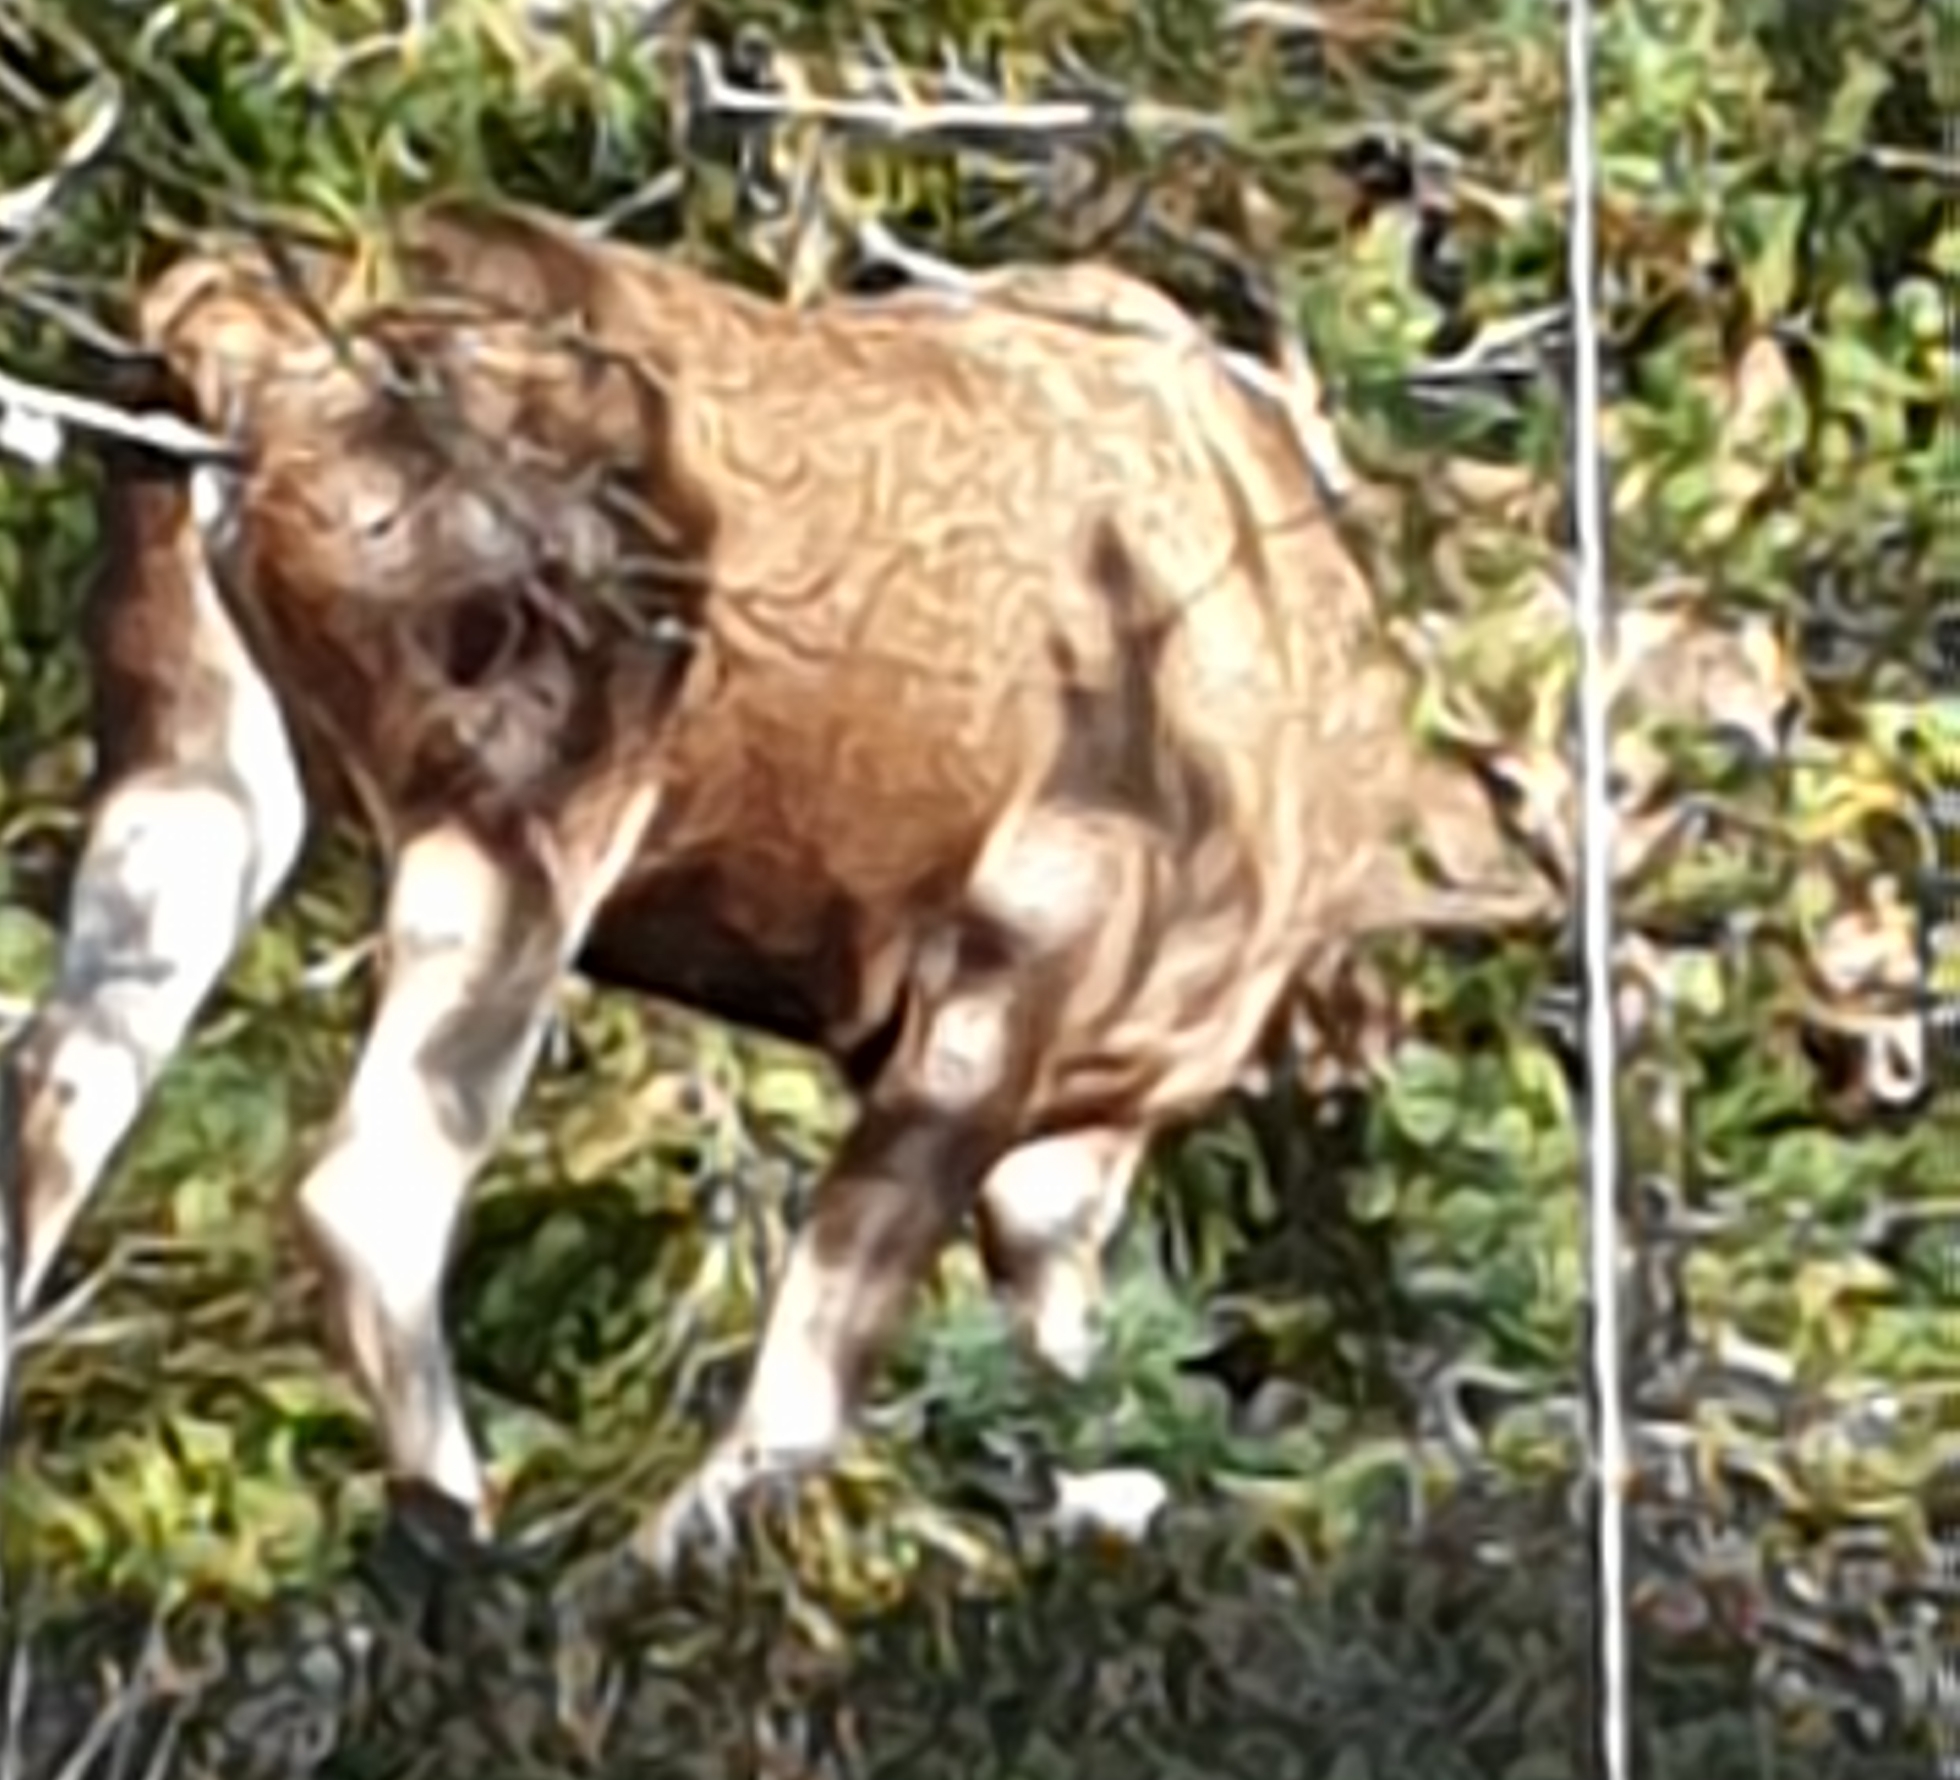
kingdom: Animalia
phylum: Chordata
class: Mammalia
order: Artiodactyla
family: Cervidae
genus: Alces
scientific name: Alces alces
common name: Moose
